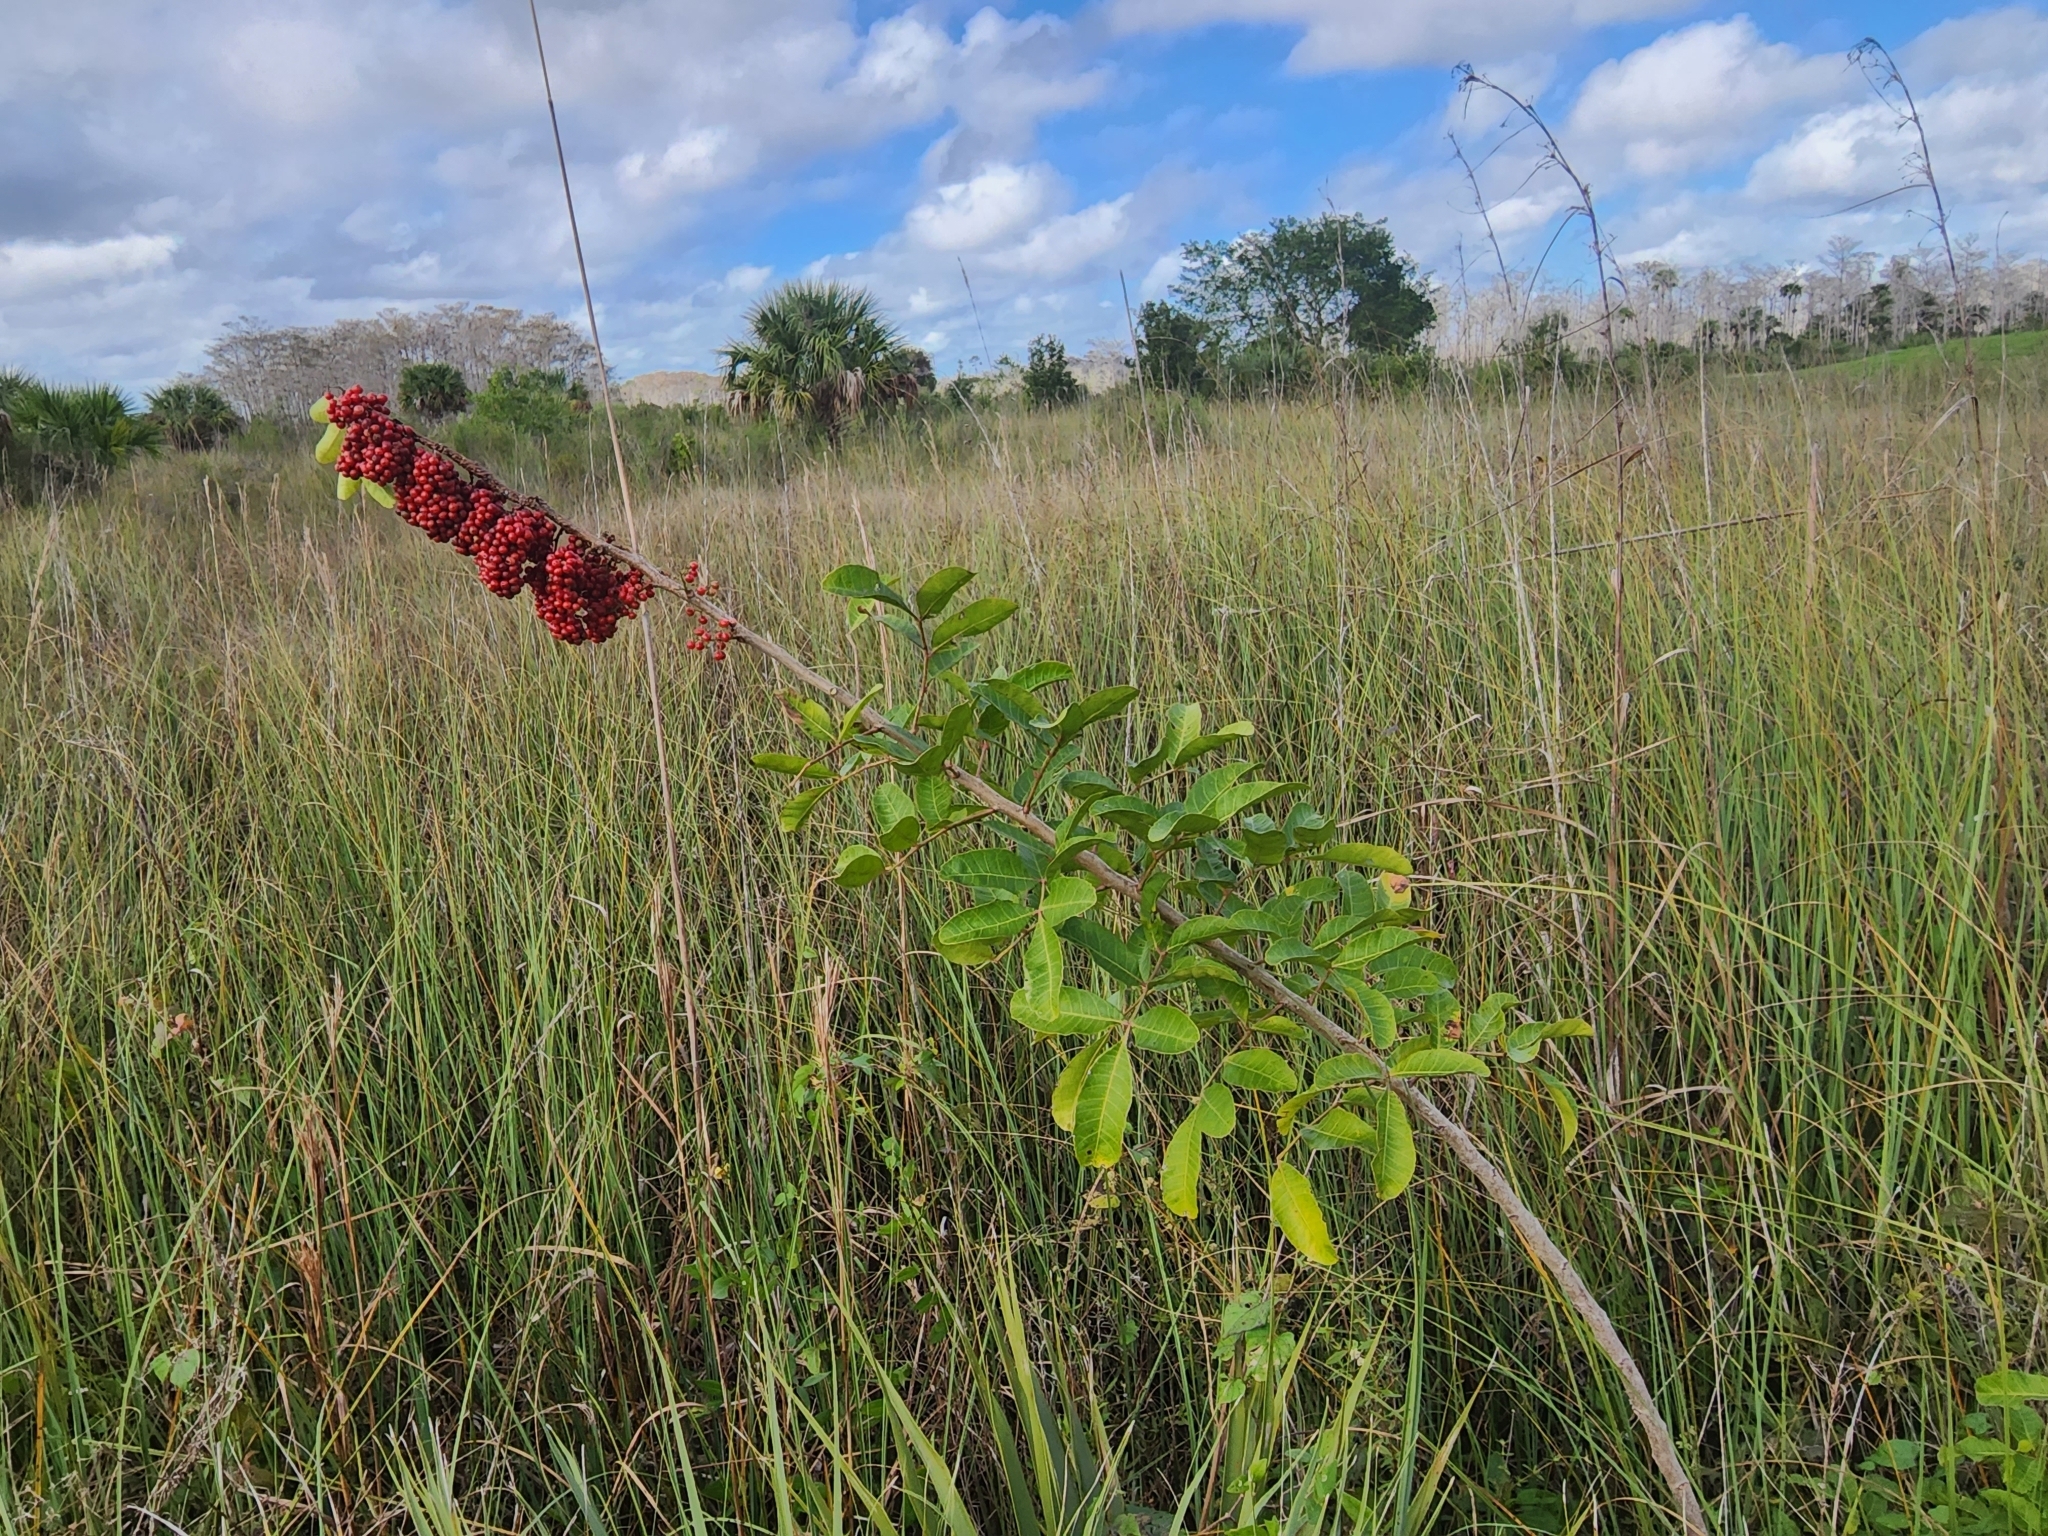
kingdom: Plantae
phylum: Tracheophyta
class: Magnoliopsida
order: Sapindales
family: Anacardiaceae
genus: Schinus
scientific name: Schinus terebinthifolia
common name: Brazilian peppertree
